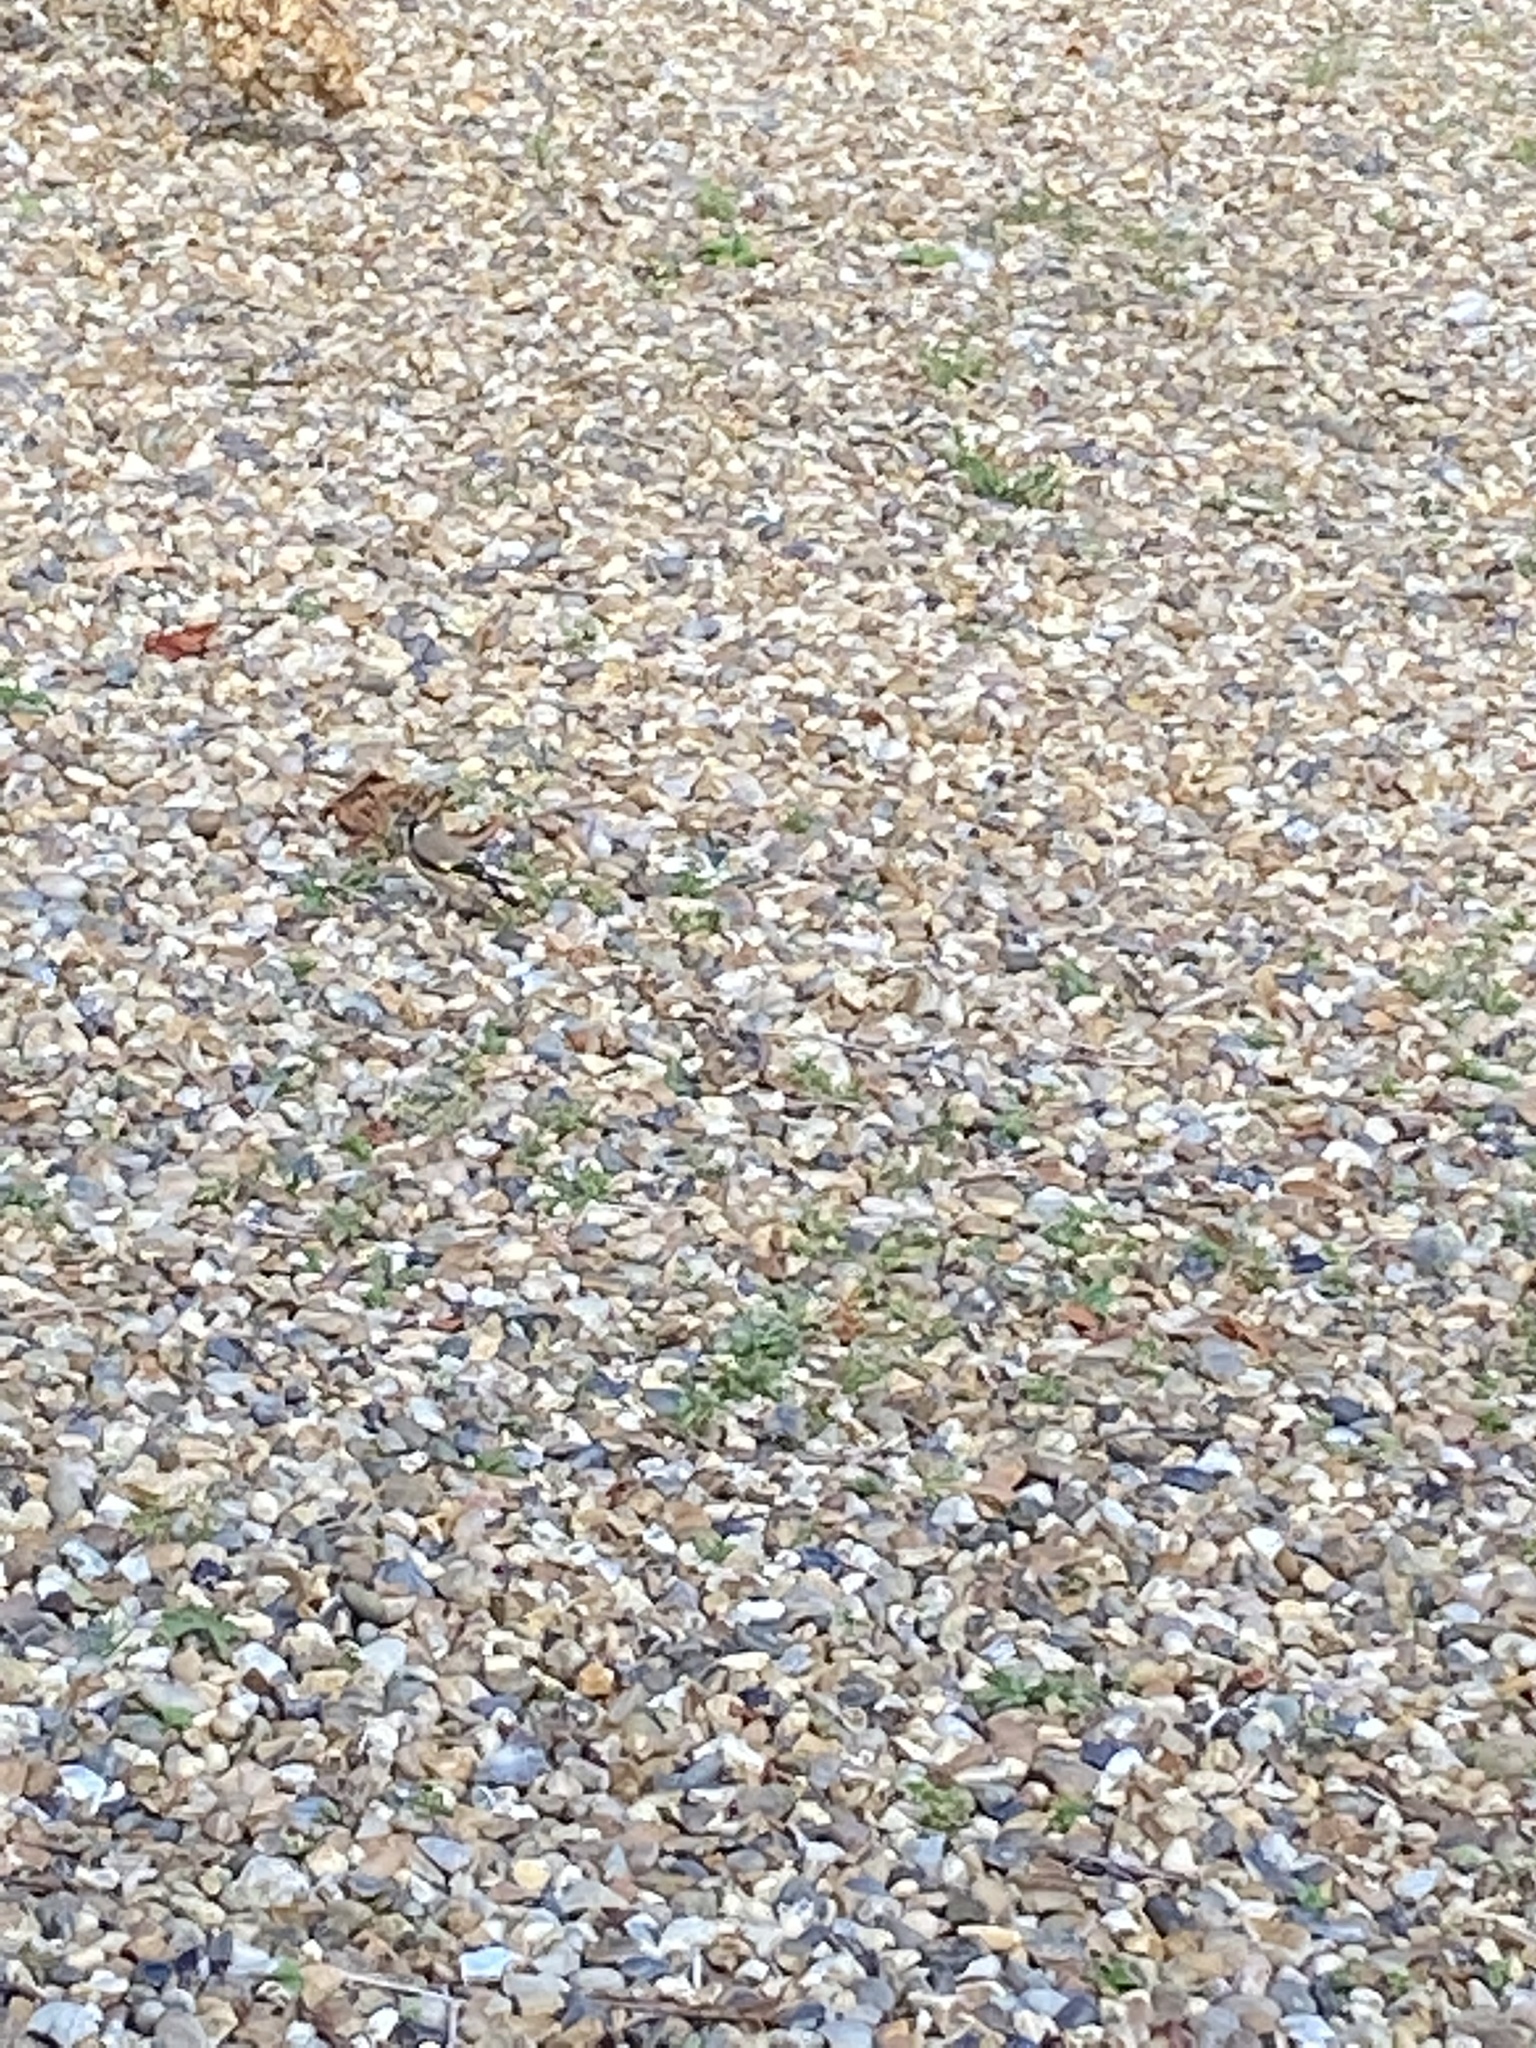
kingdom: Animalia
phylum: Chordata
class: Aves
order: Passeriformes
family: Fringillidae
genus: Carduelis
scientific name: Carduelis carduelis
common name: European goldfinch
